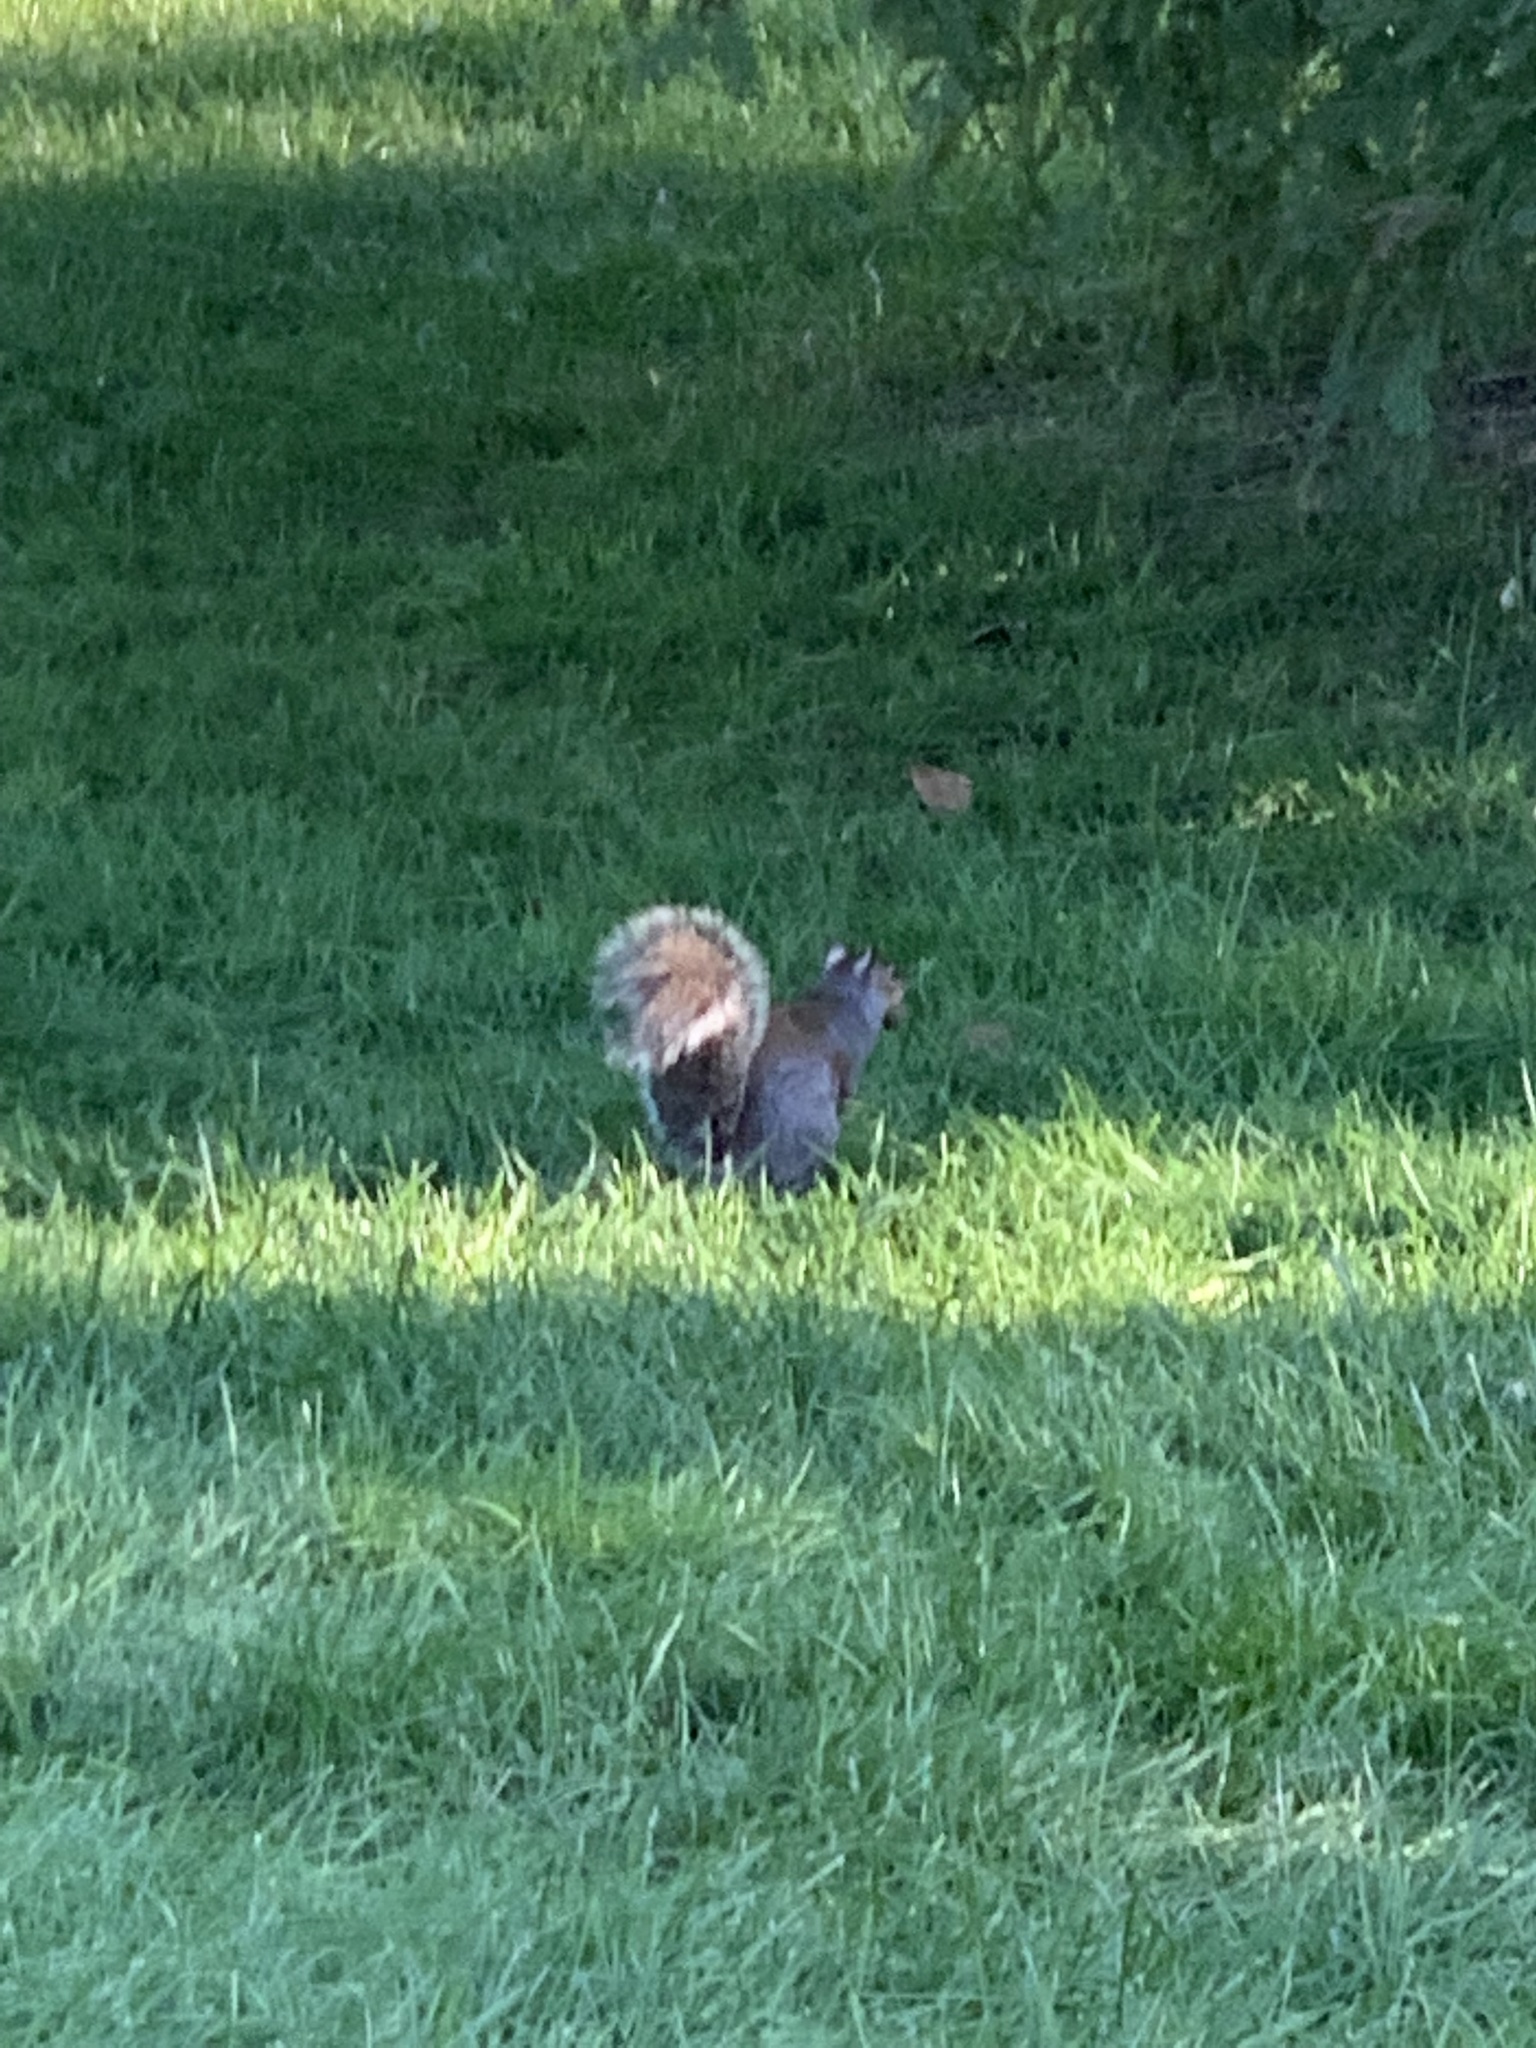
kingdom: Animalia
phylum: Chordata
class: Mammalia
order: Rodentia
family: Sciuridae
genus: Sciurus
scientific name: Sciurus carolinensis
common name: Eastern gray squirrel
